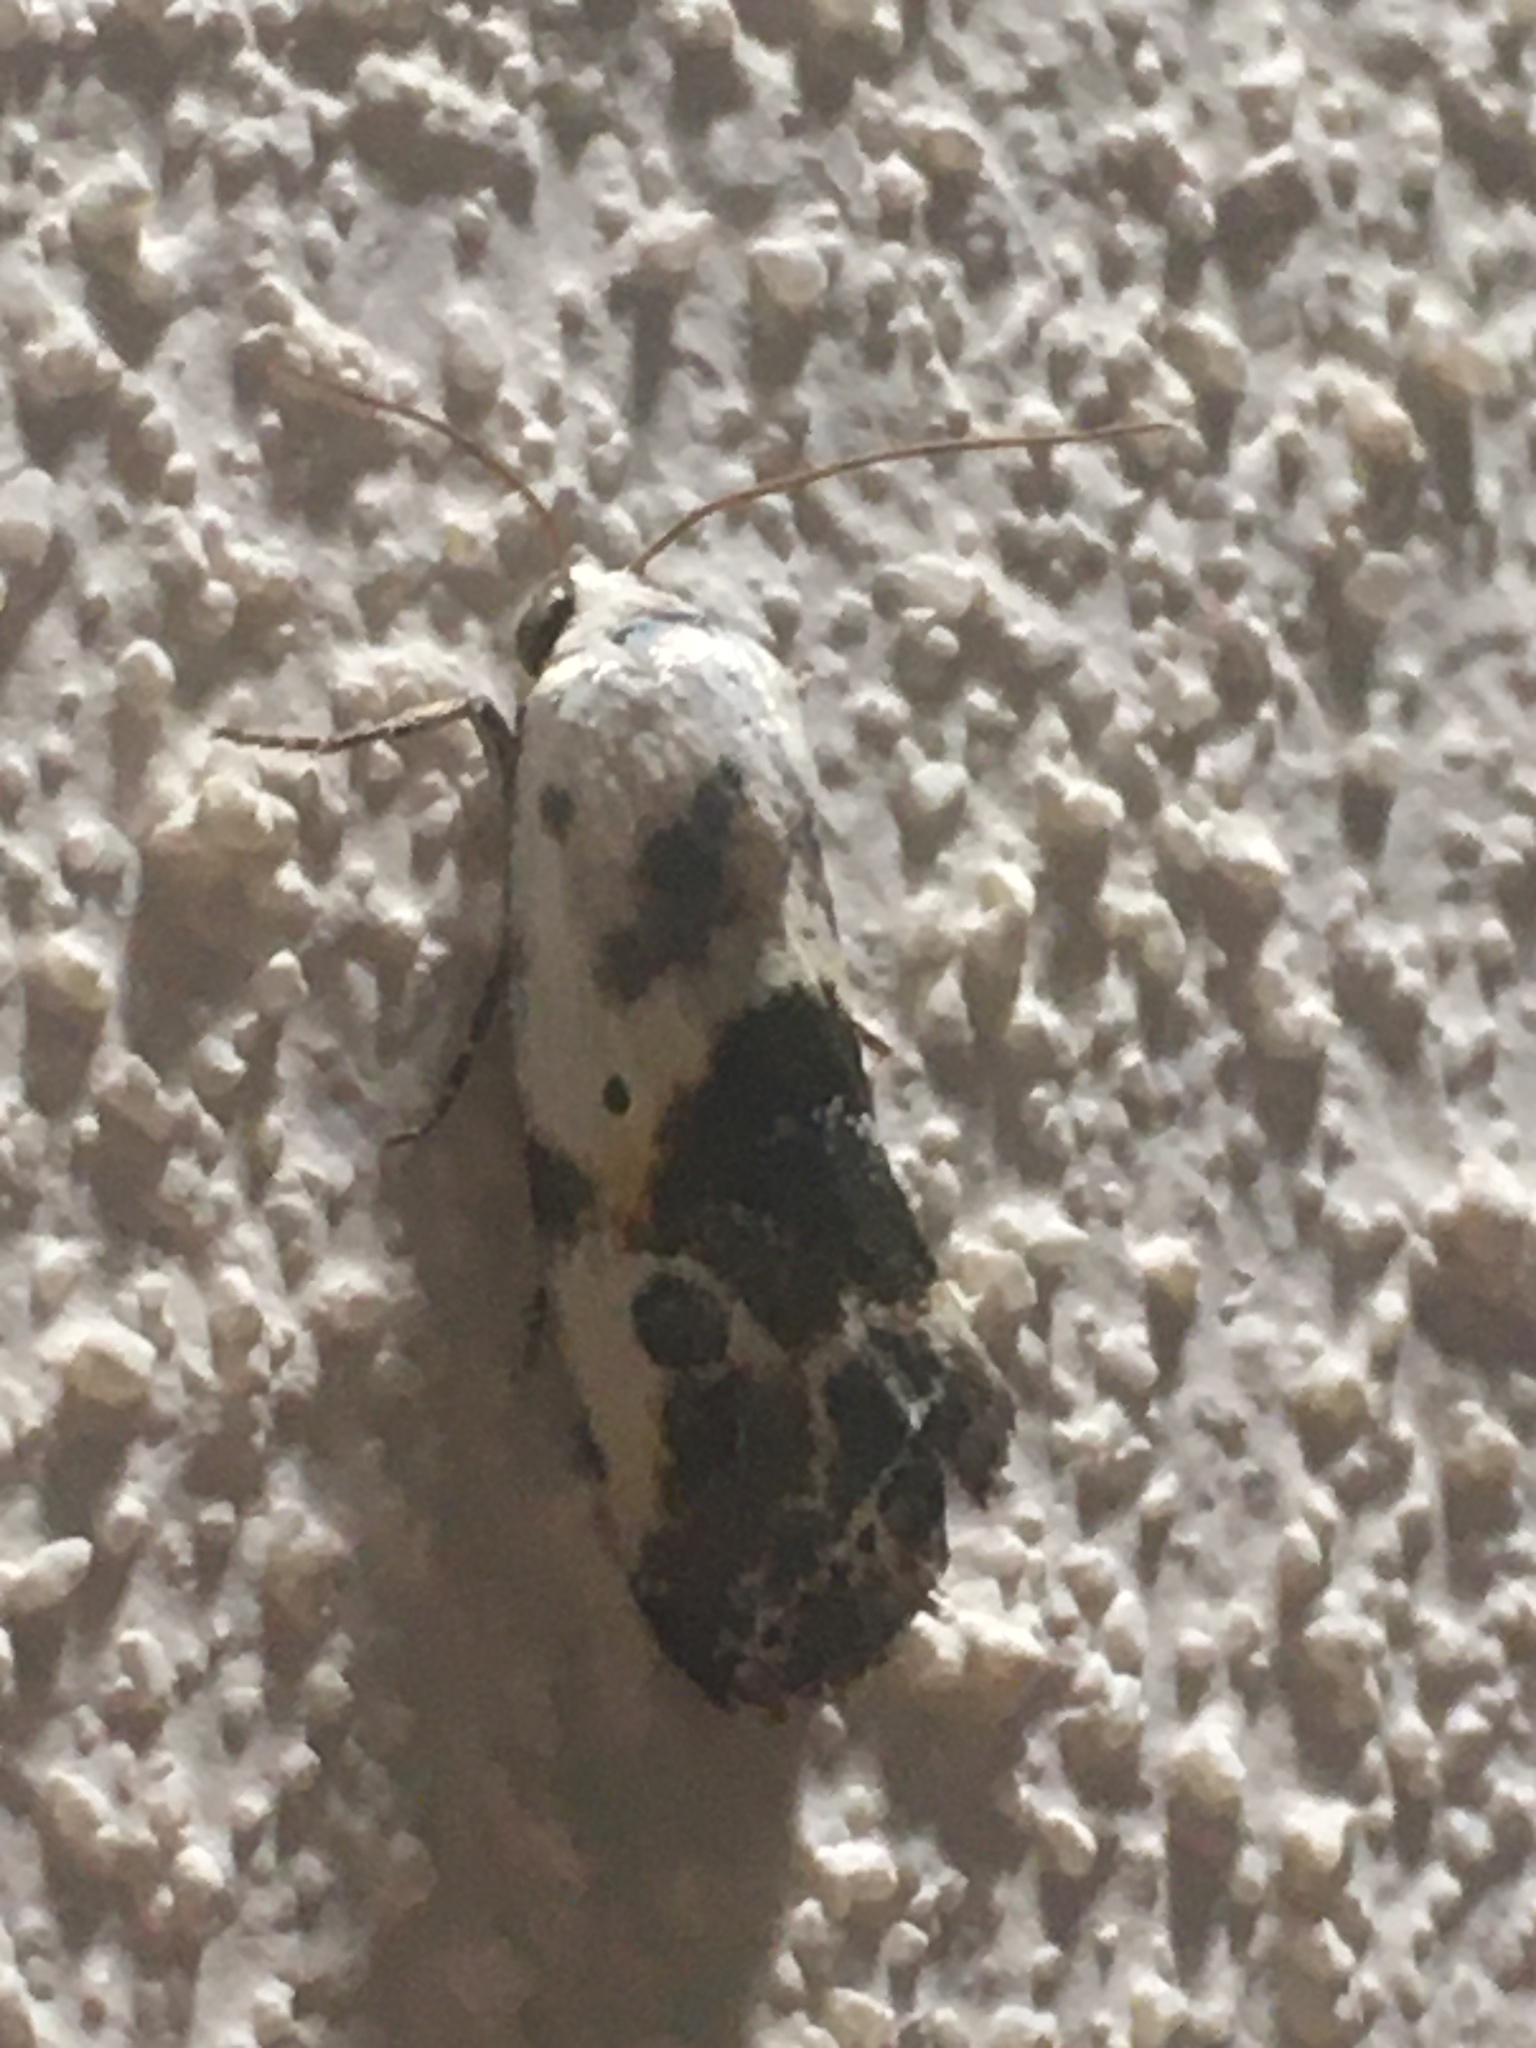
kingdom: Animalia
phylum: Arthropoda
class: Insecta
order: Lepidoptera
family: Noctuidae
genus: Acontia
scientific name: Acontia candefacta
